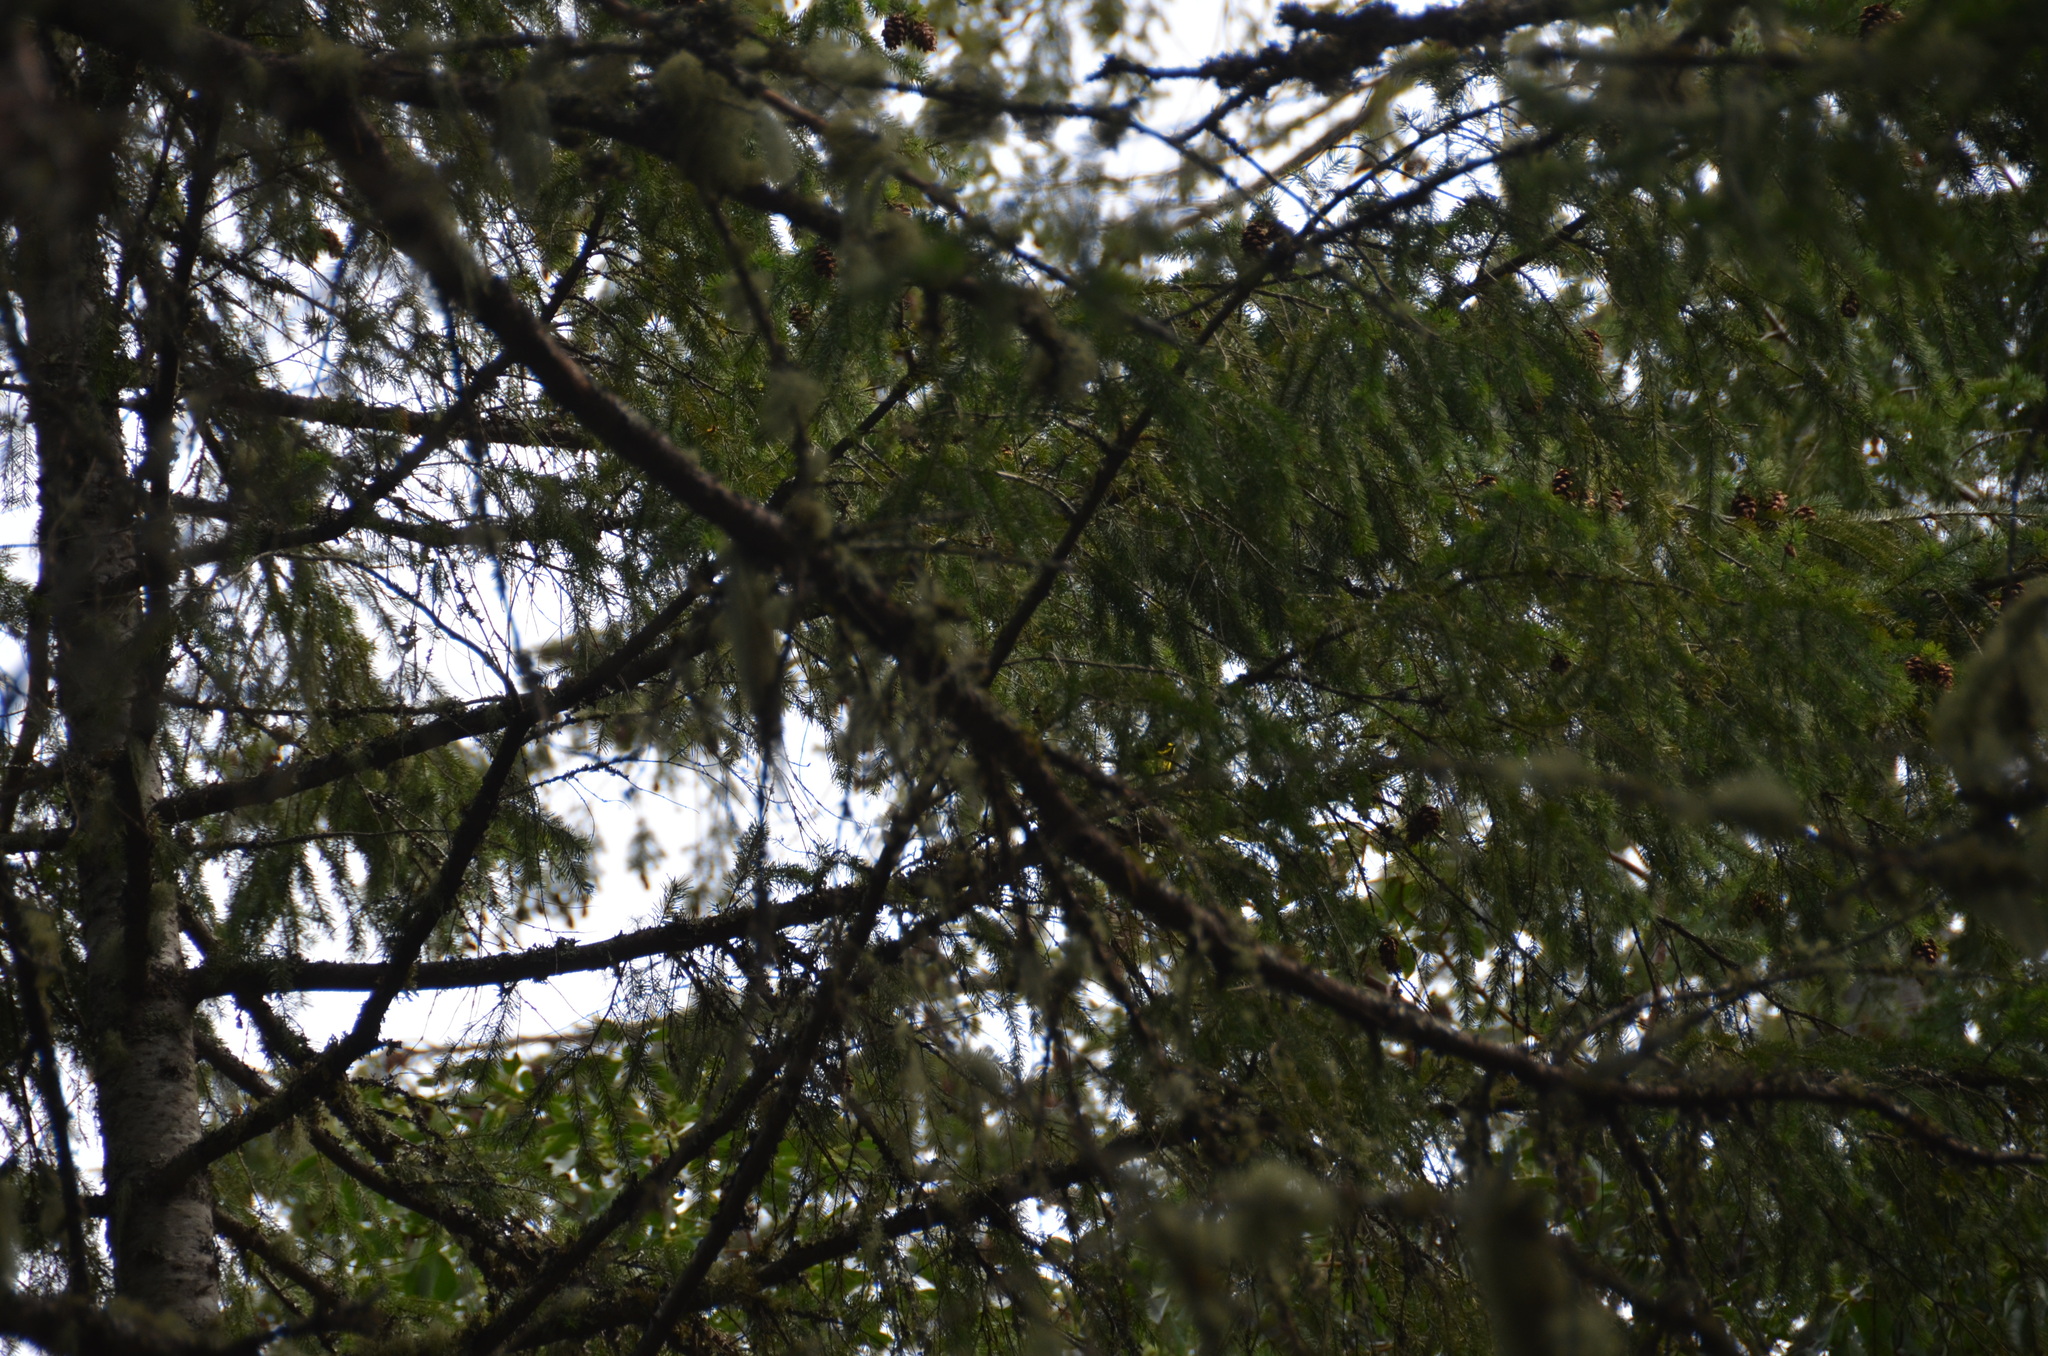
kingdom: Animalia
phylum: Chordata
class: Aves
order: Passeriformes
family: Parulidae
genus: Setophaga
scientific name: Setophaga townsendi
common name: Townsend's warbler
